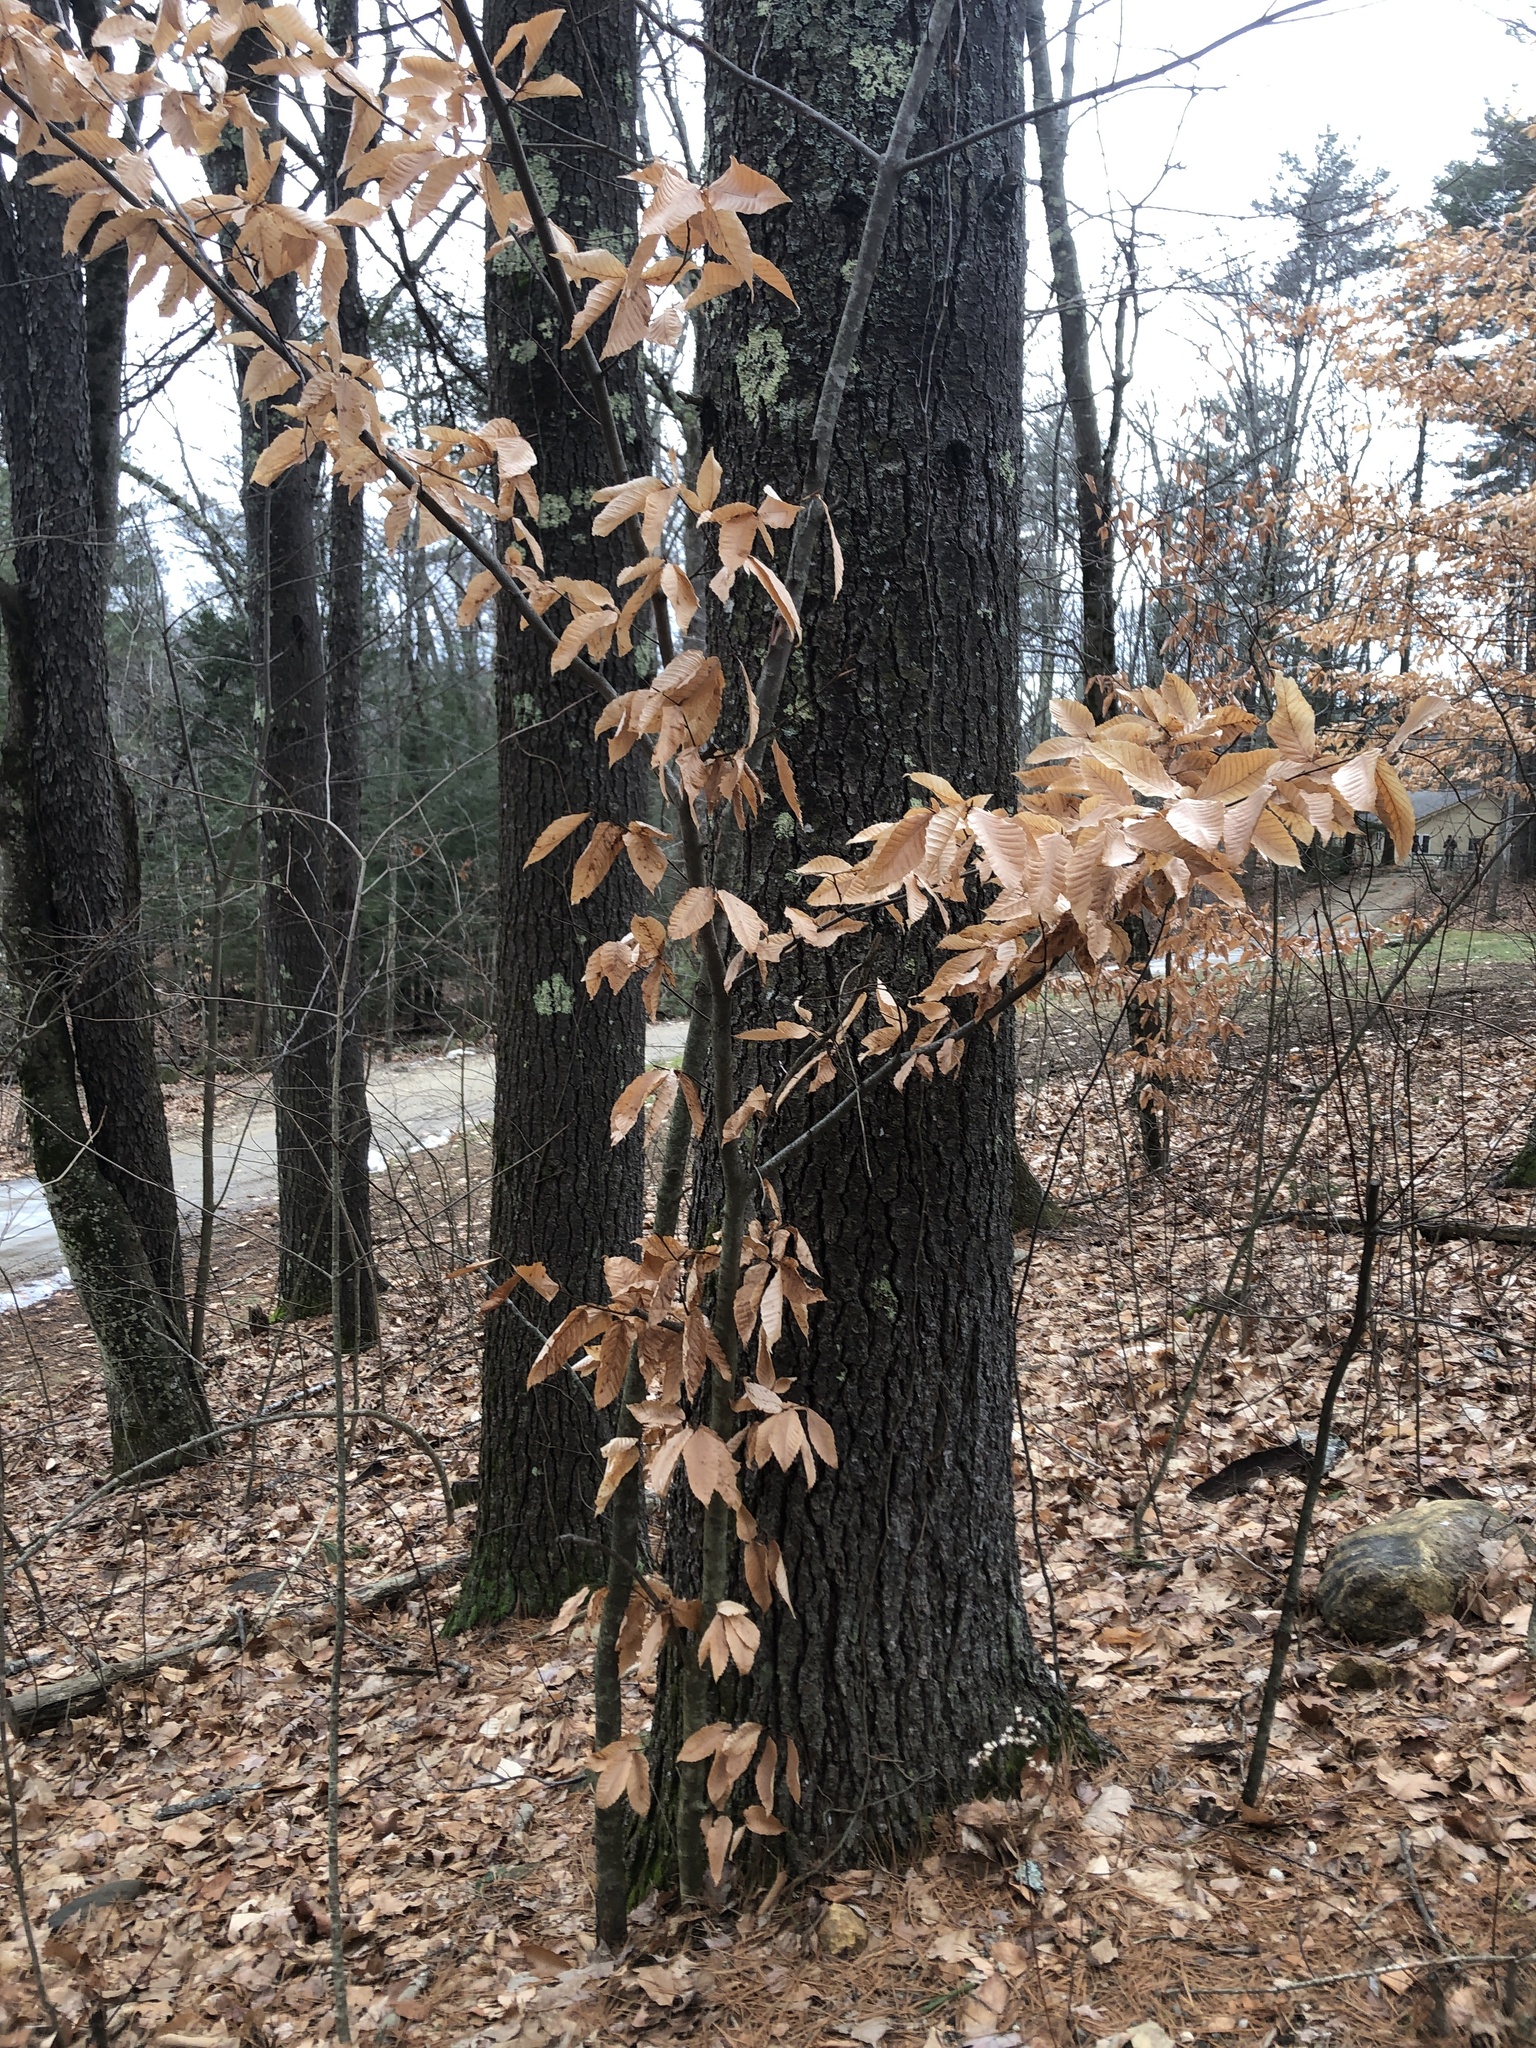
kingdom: Plantae
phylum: Tracheophyta
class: Magnoliopsida
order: Fagales
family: Fagaceae
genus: Fagus
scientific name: Fagus grandifolia
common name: American beech
